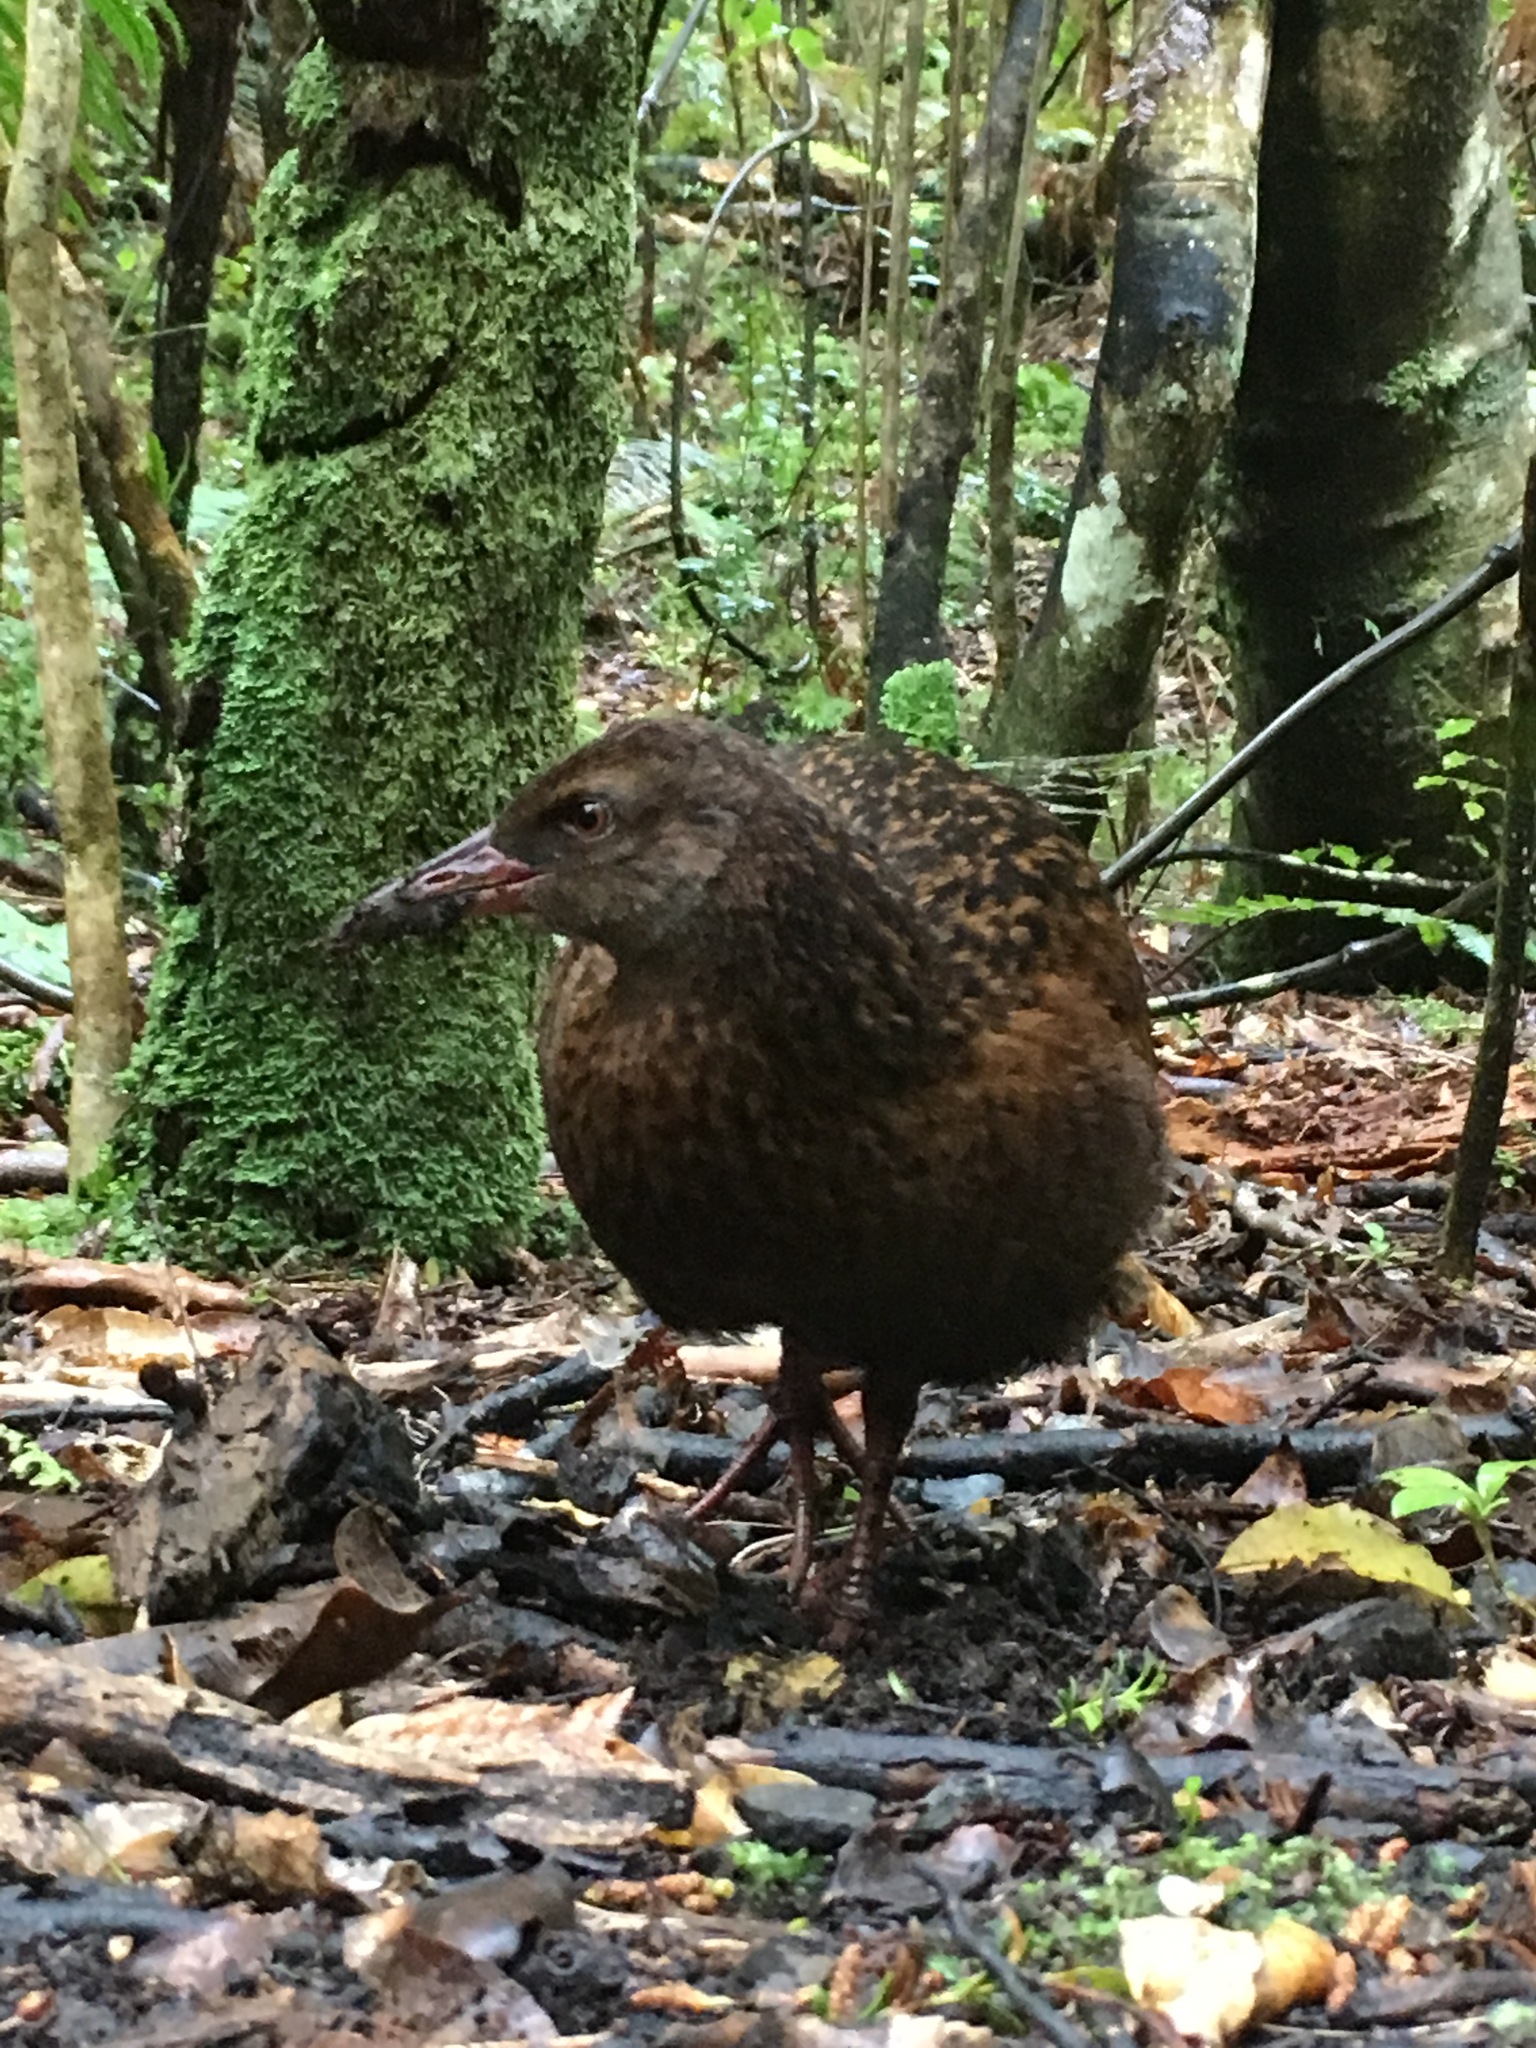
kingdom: Animalia
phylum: Chordata
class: Aves
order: Gruiformes
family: Rallidae
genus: Gallirallus
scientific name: Gallirallus australis
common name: Weka
